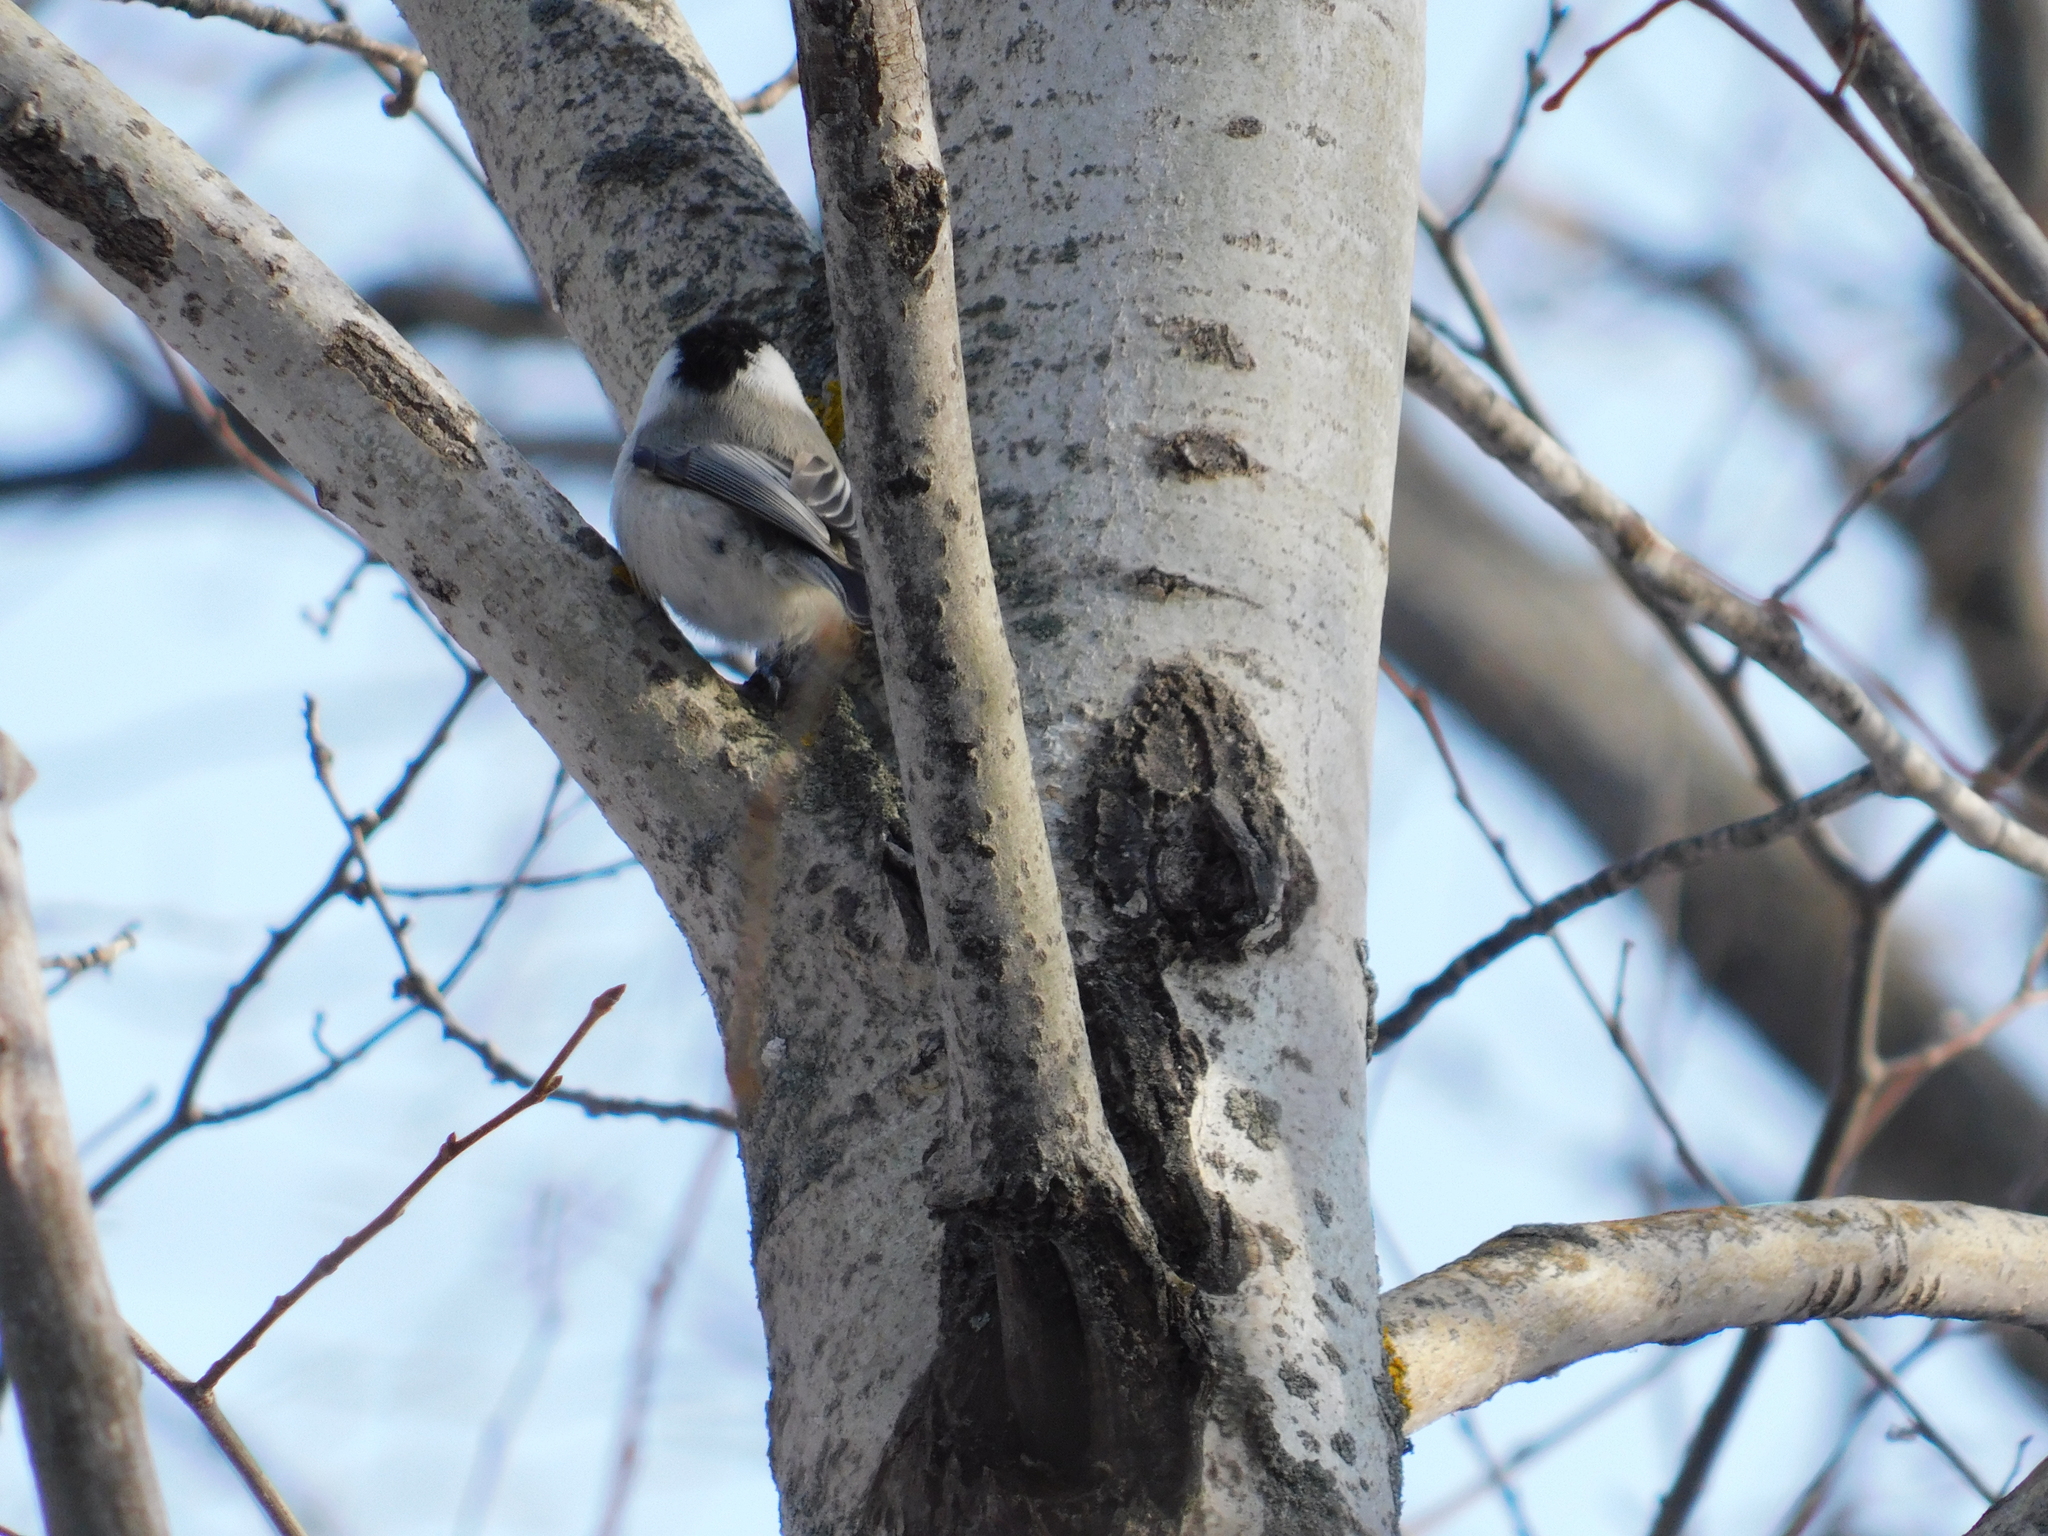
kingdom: Animalia
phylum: Chordata
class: Aves
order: Passeriformes
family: Paridae
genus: Poecile
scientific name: Poecile montanus
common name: Willow tit
